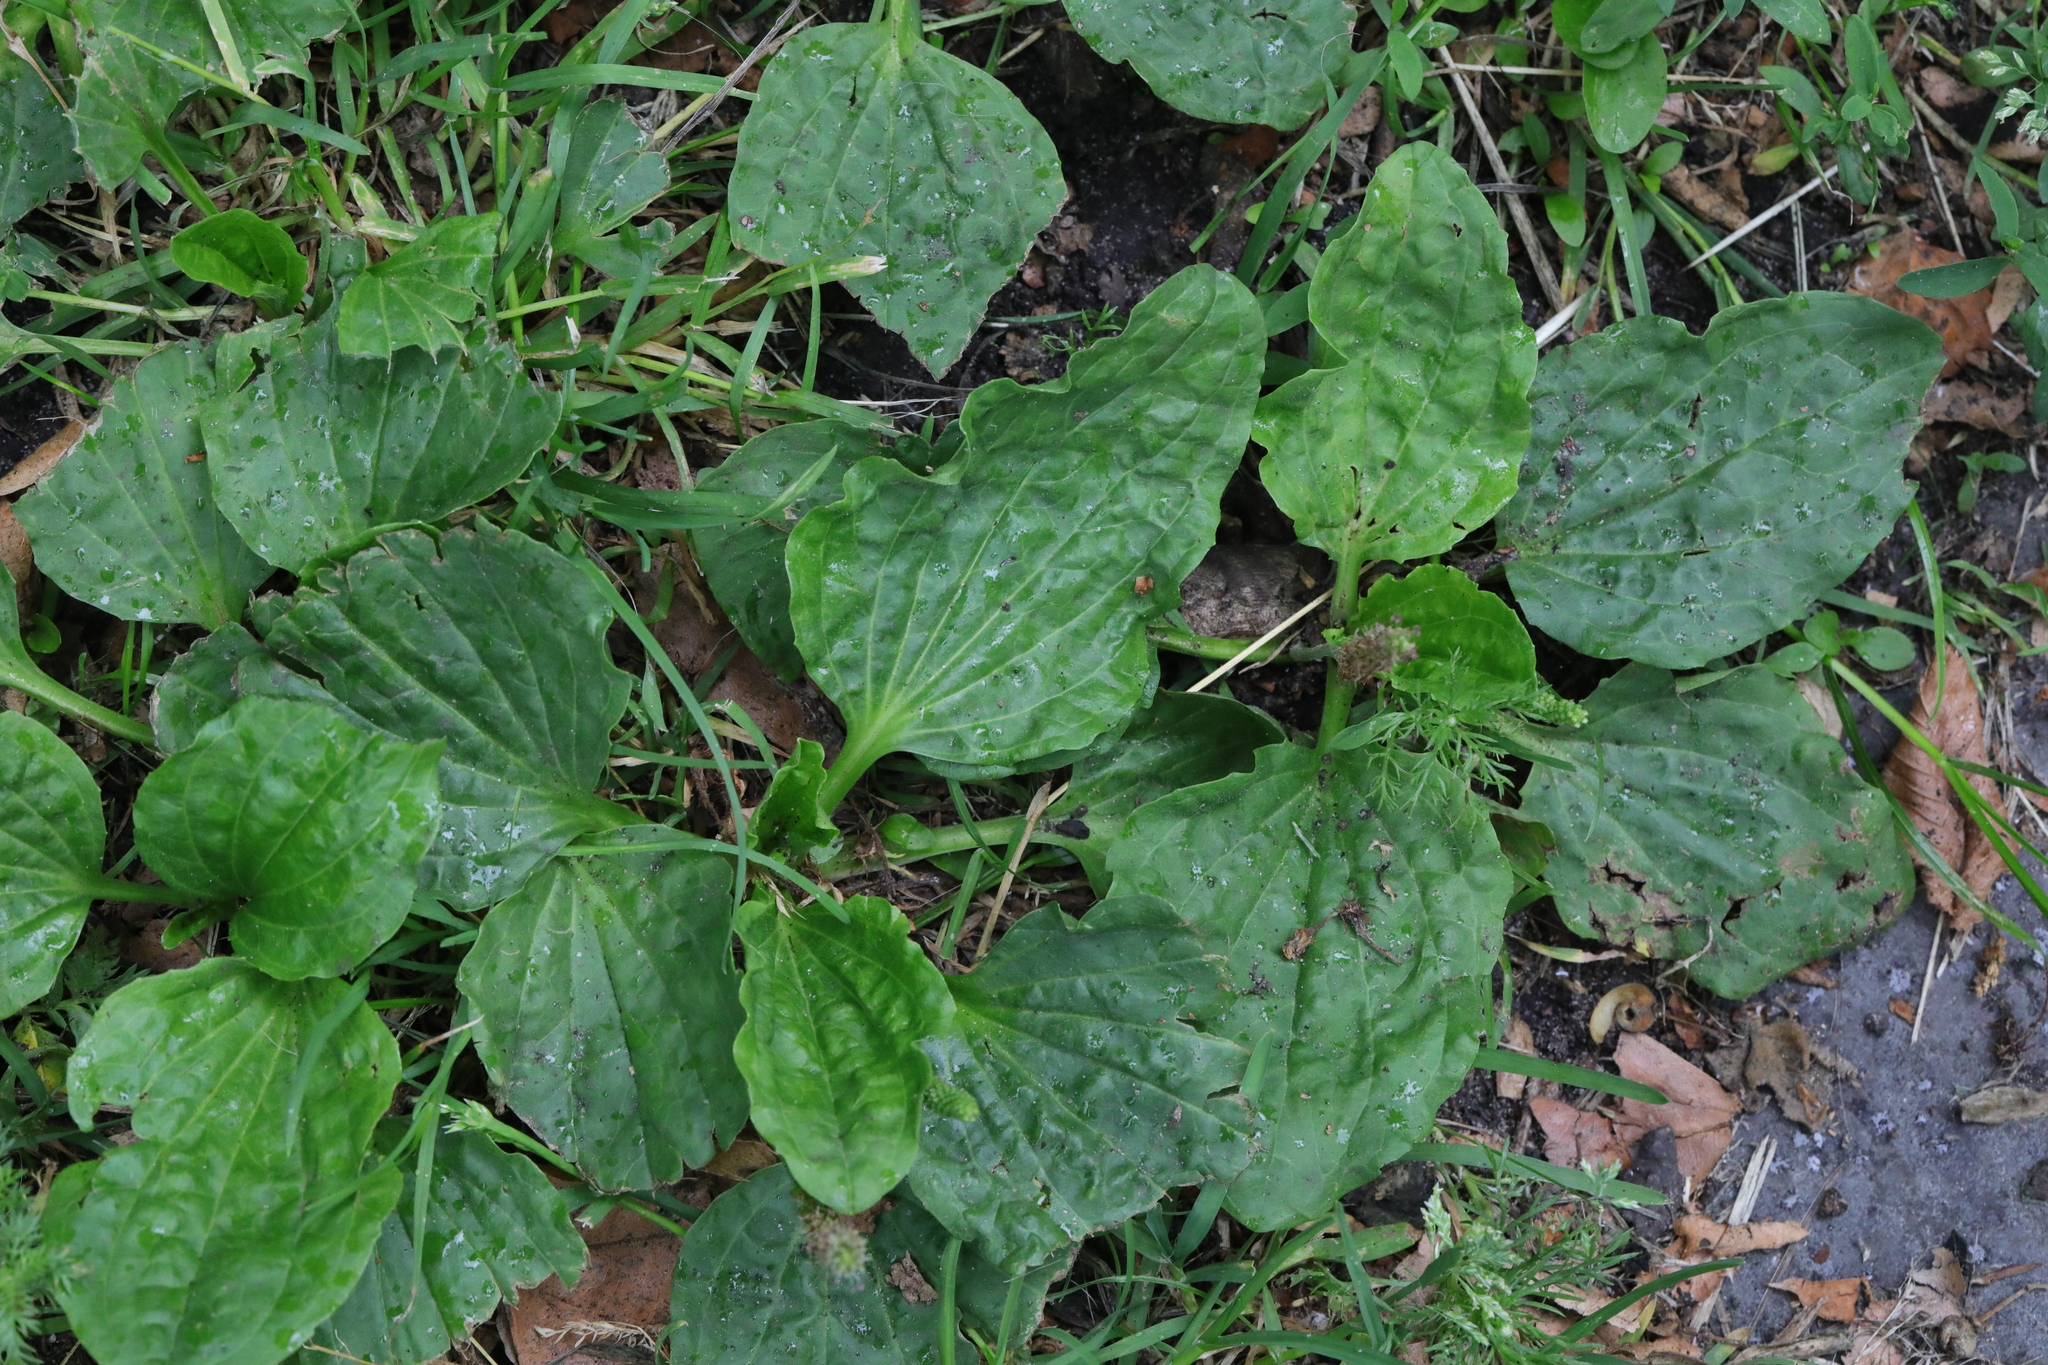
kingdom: Plantae
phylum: Tracheophyta
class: Magnoliopsida
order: Lamiales
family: Plantaginaceae
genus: Plantago
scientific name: Plantago major
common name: Common plantain
